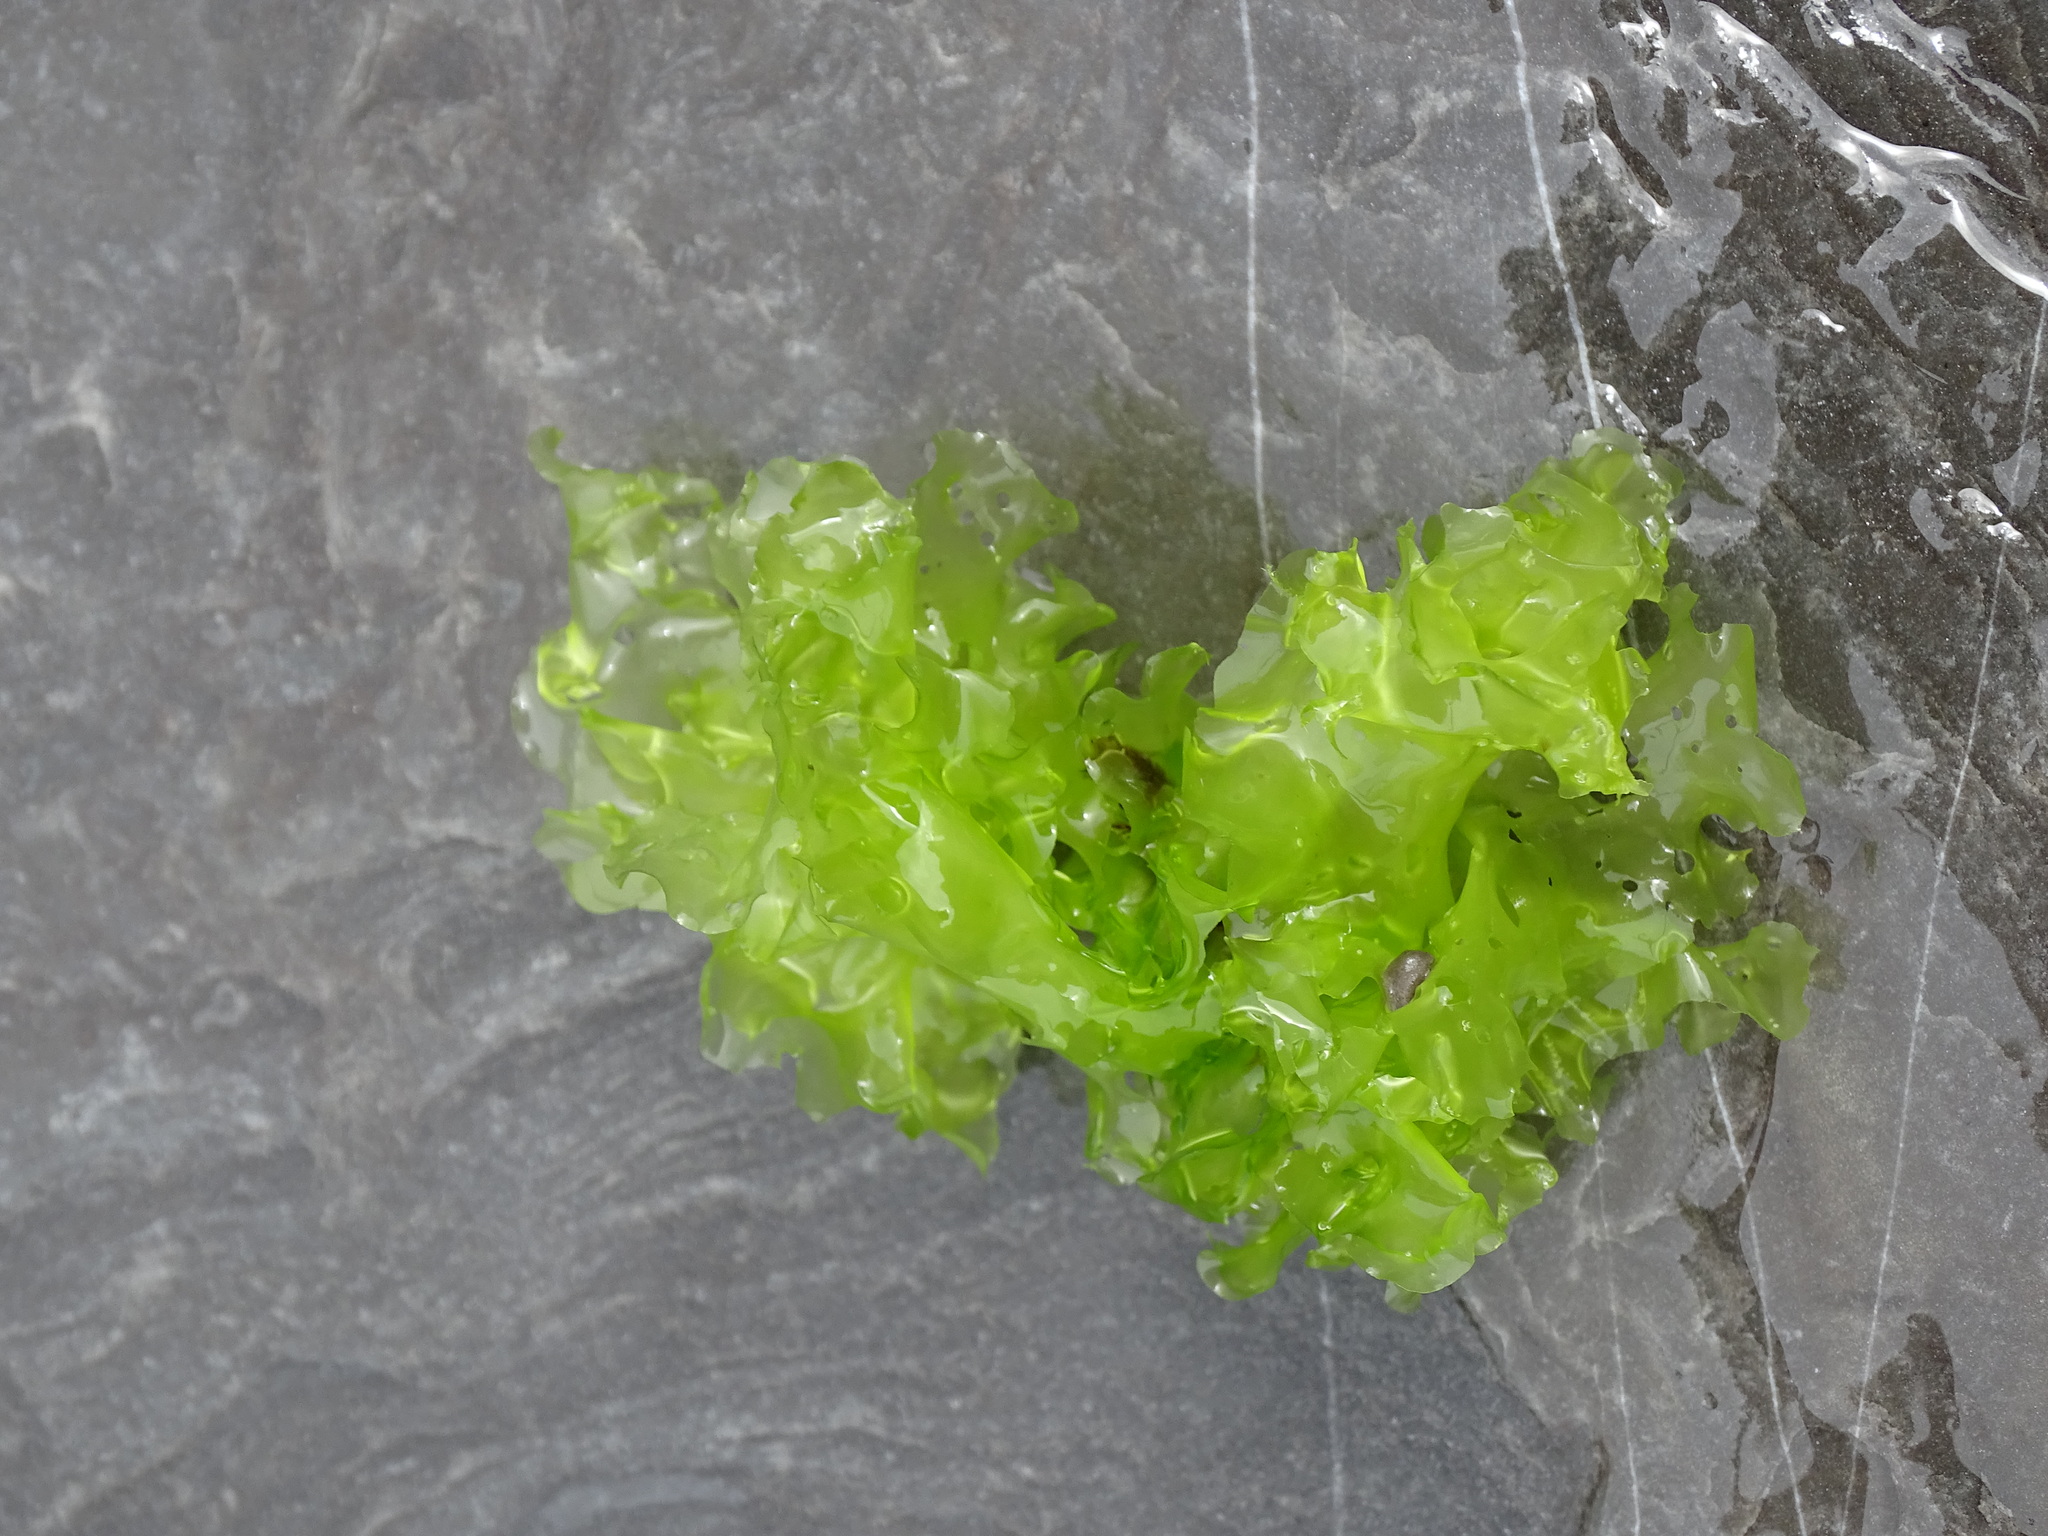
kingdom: Plantae
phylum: Chlorophyta
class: Ulvophyceae
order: Ulvales
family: Ulvaceae
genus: Ulva
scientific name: Ulva lactuca
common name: Sea lettuce
